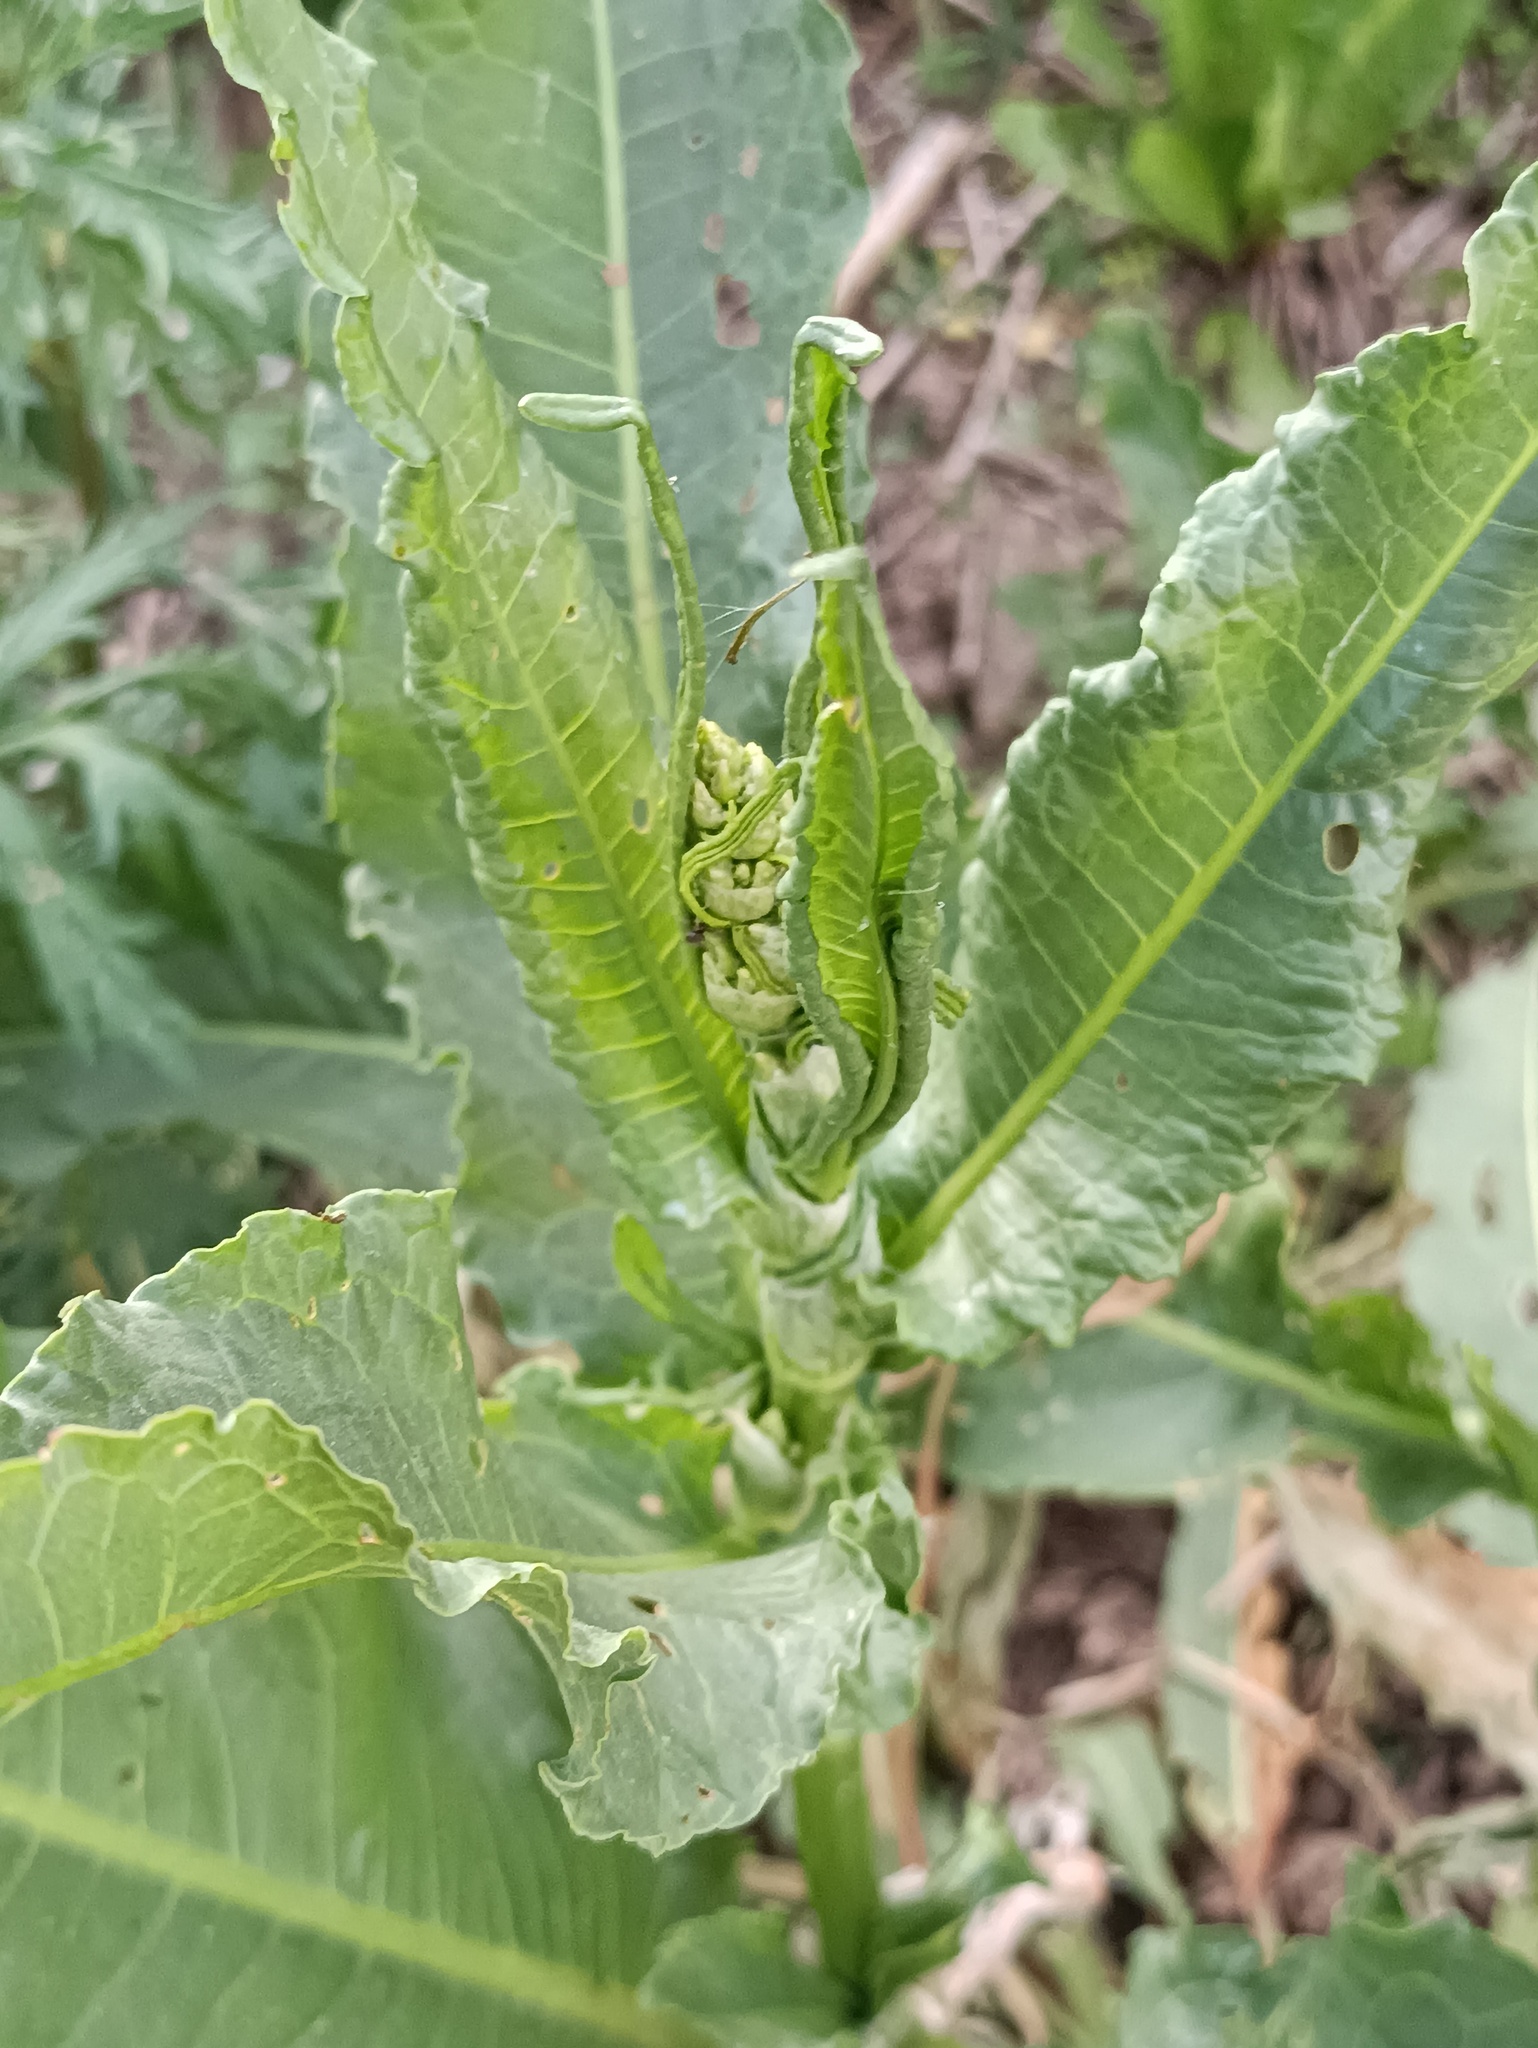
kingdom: Plantae
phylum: Tracheophyta
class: Magnoliopsida
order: Caryophyllales
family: Polygonaceae
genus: Rumex
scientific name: Rumex crispus
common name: Curled dock
